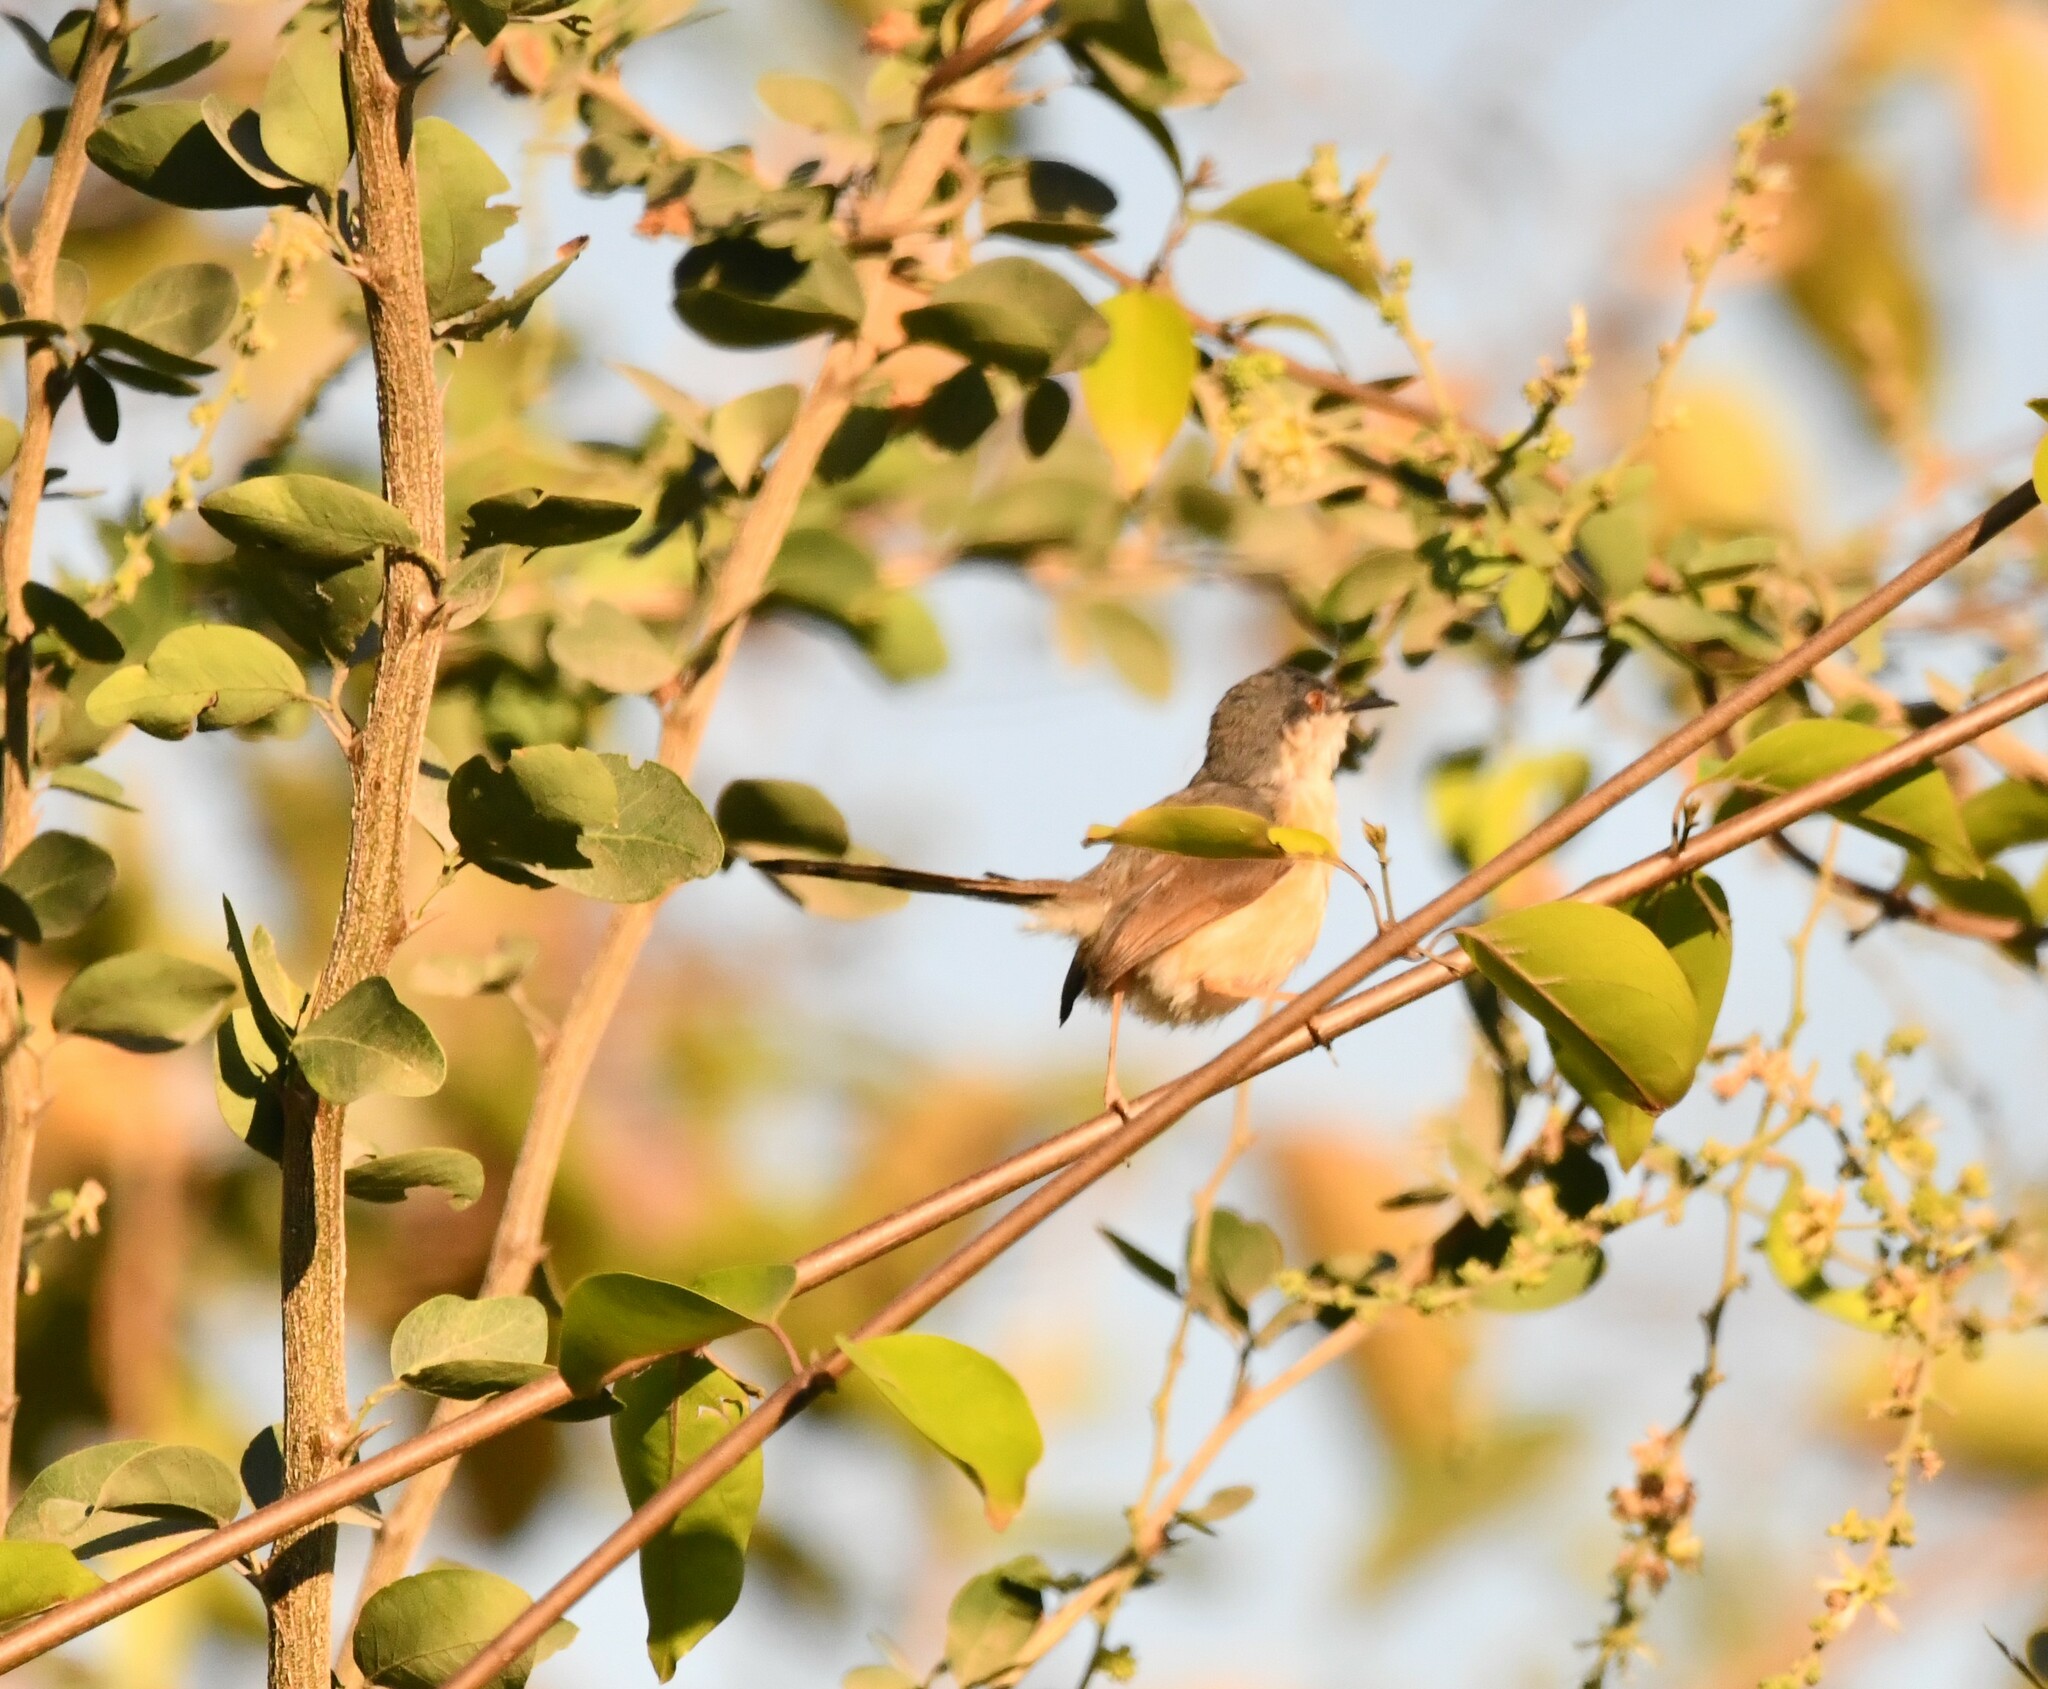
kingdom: Animalia
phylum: Chordata
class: Aves
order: Passeriformes
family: Cisticolidae
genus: Prinia
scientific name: Prinia socialis
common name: Ashy prinia
